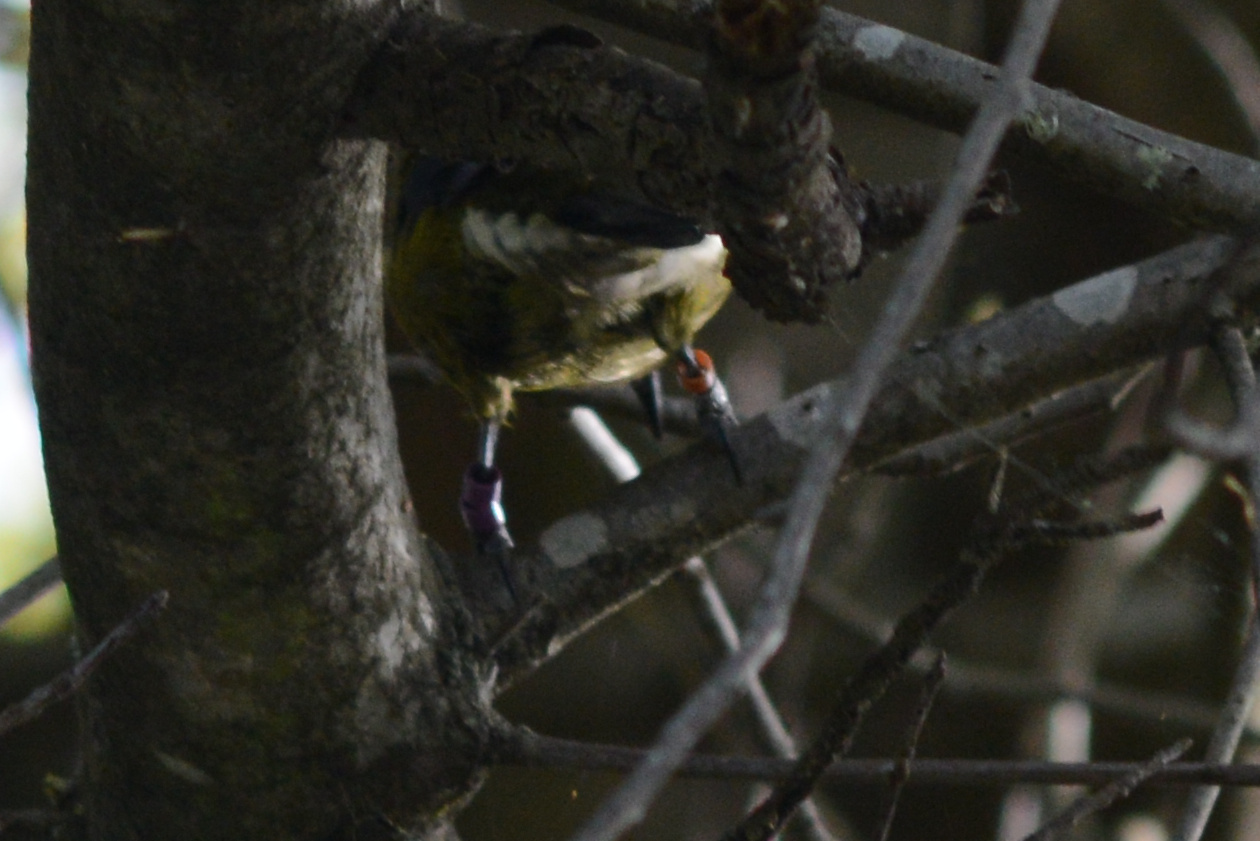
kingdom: Animalia
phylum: Chordata
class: Aves
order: Passeriformes
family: Meliphagidae
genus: Anthornis
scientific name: Anthornis melanura
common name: New zealand bellbird
